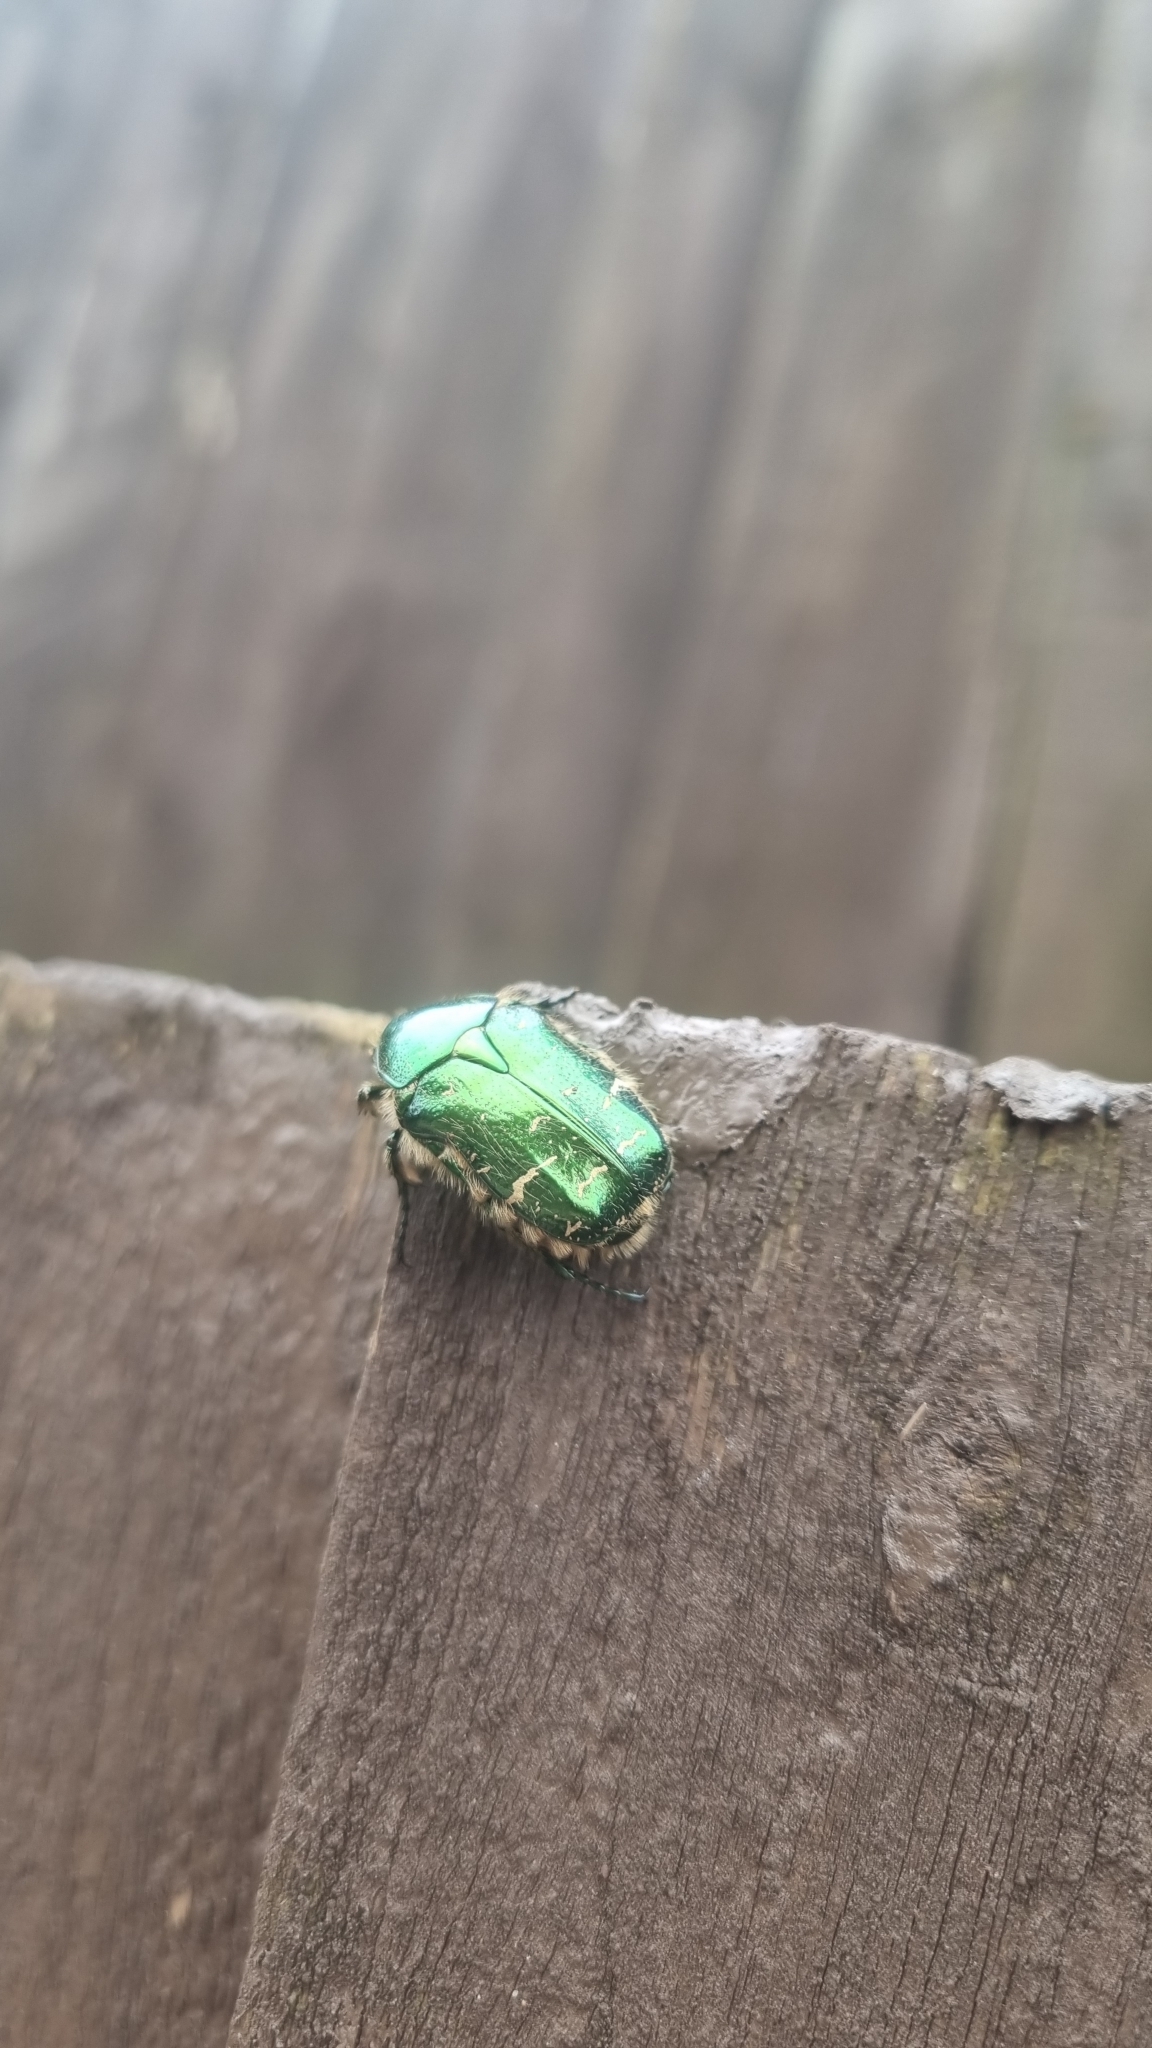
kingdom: Animalia
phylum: Arthropoda
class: Insecta
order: Coleoptera
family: Scarabaeidae
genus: Cetonia
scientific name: Cetonia aurata
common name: Rose chafer
